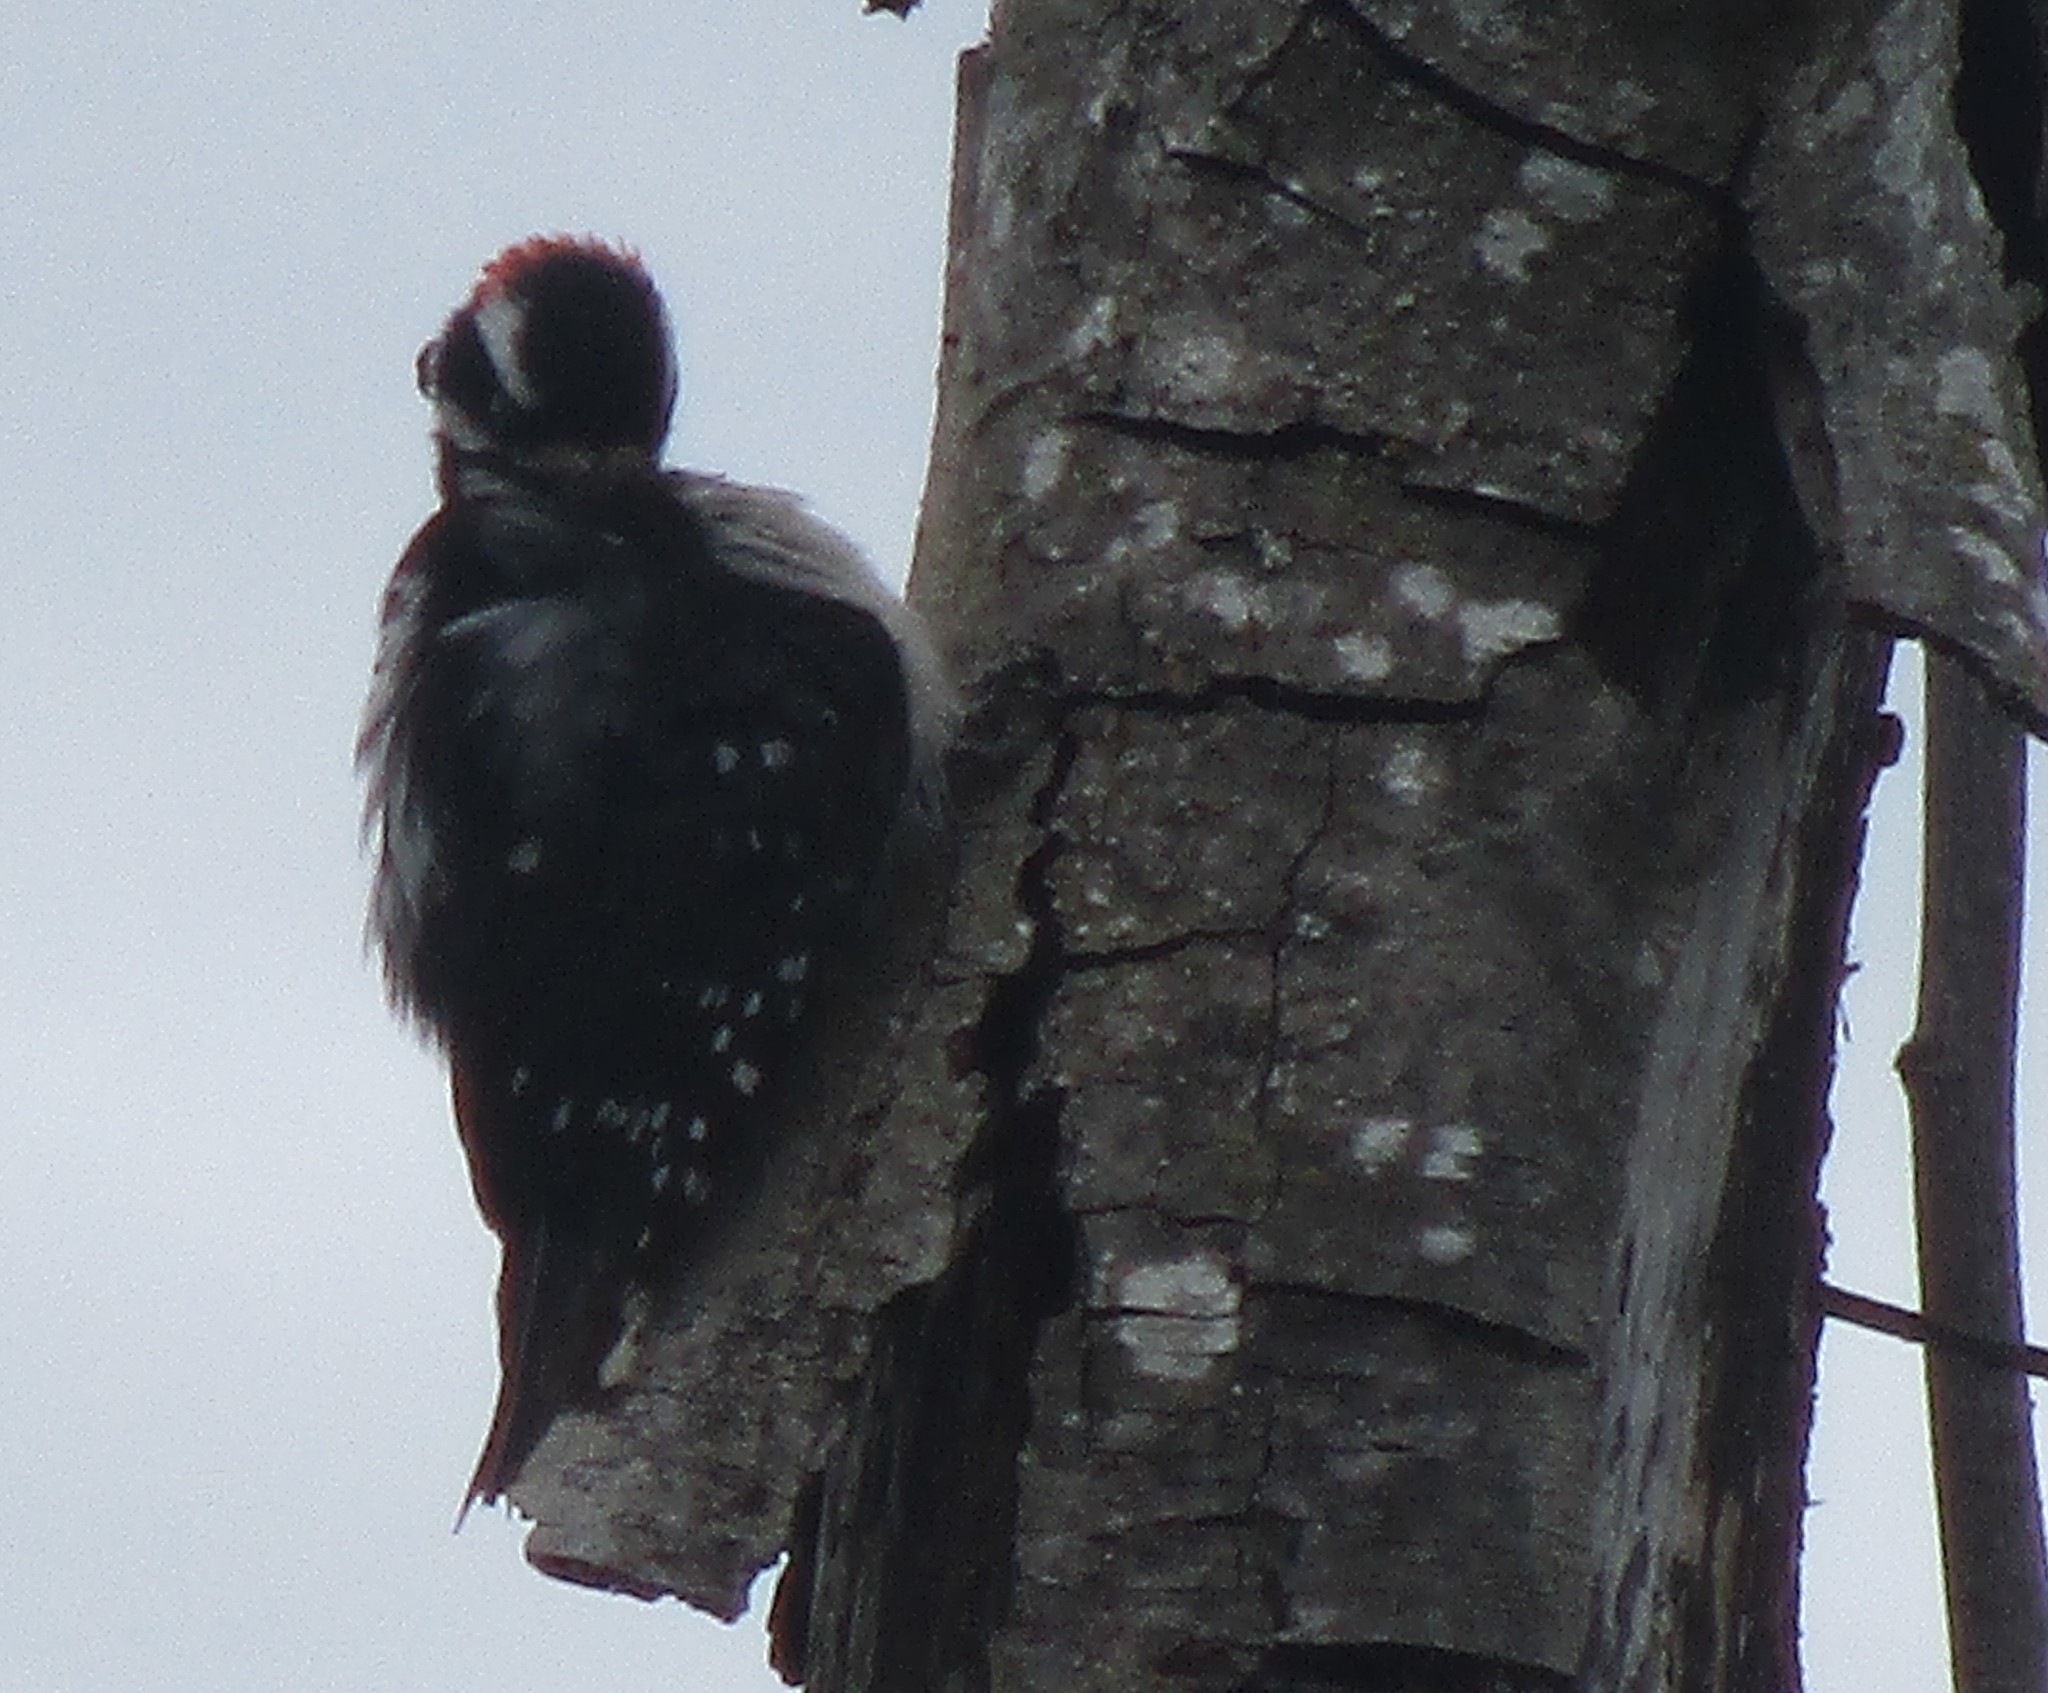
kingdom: Animalia
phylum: Chordata
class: Aves
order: Piciformes
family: Picidae
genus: Dryobates
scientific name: Dryobates pubescens
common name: Downy woodpecker
